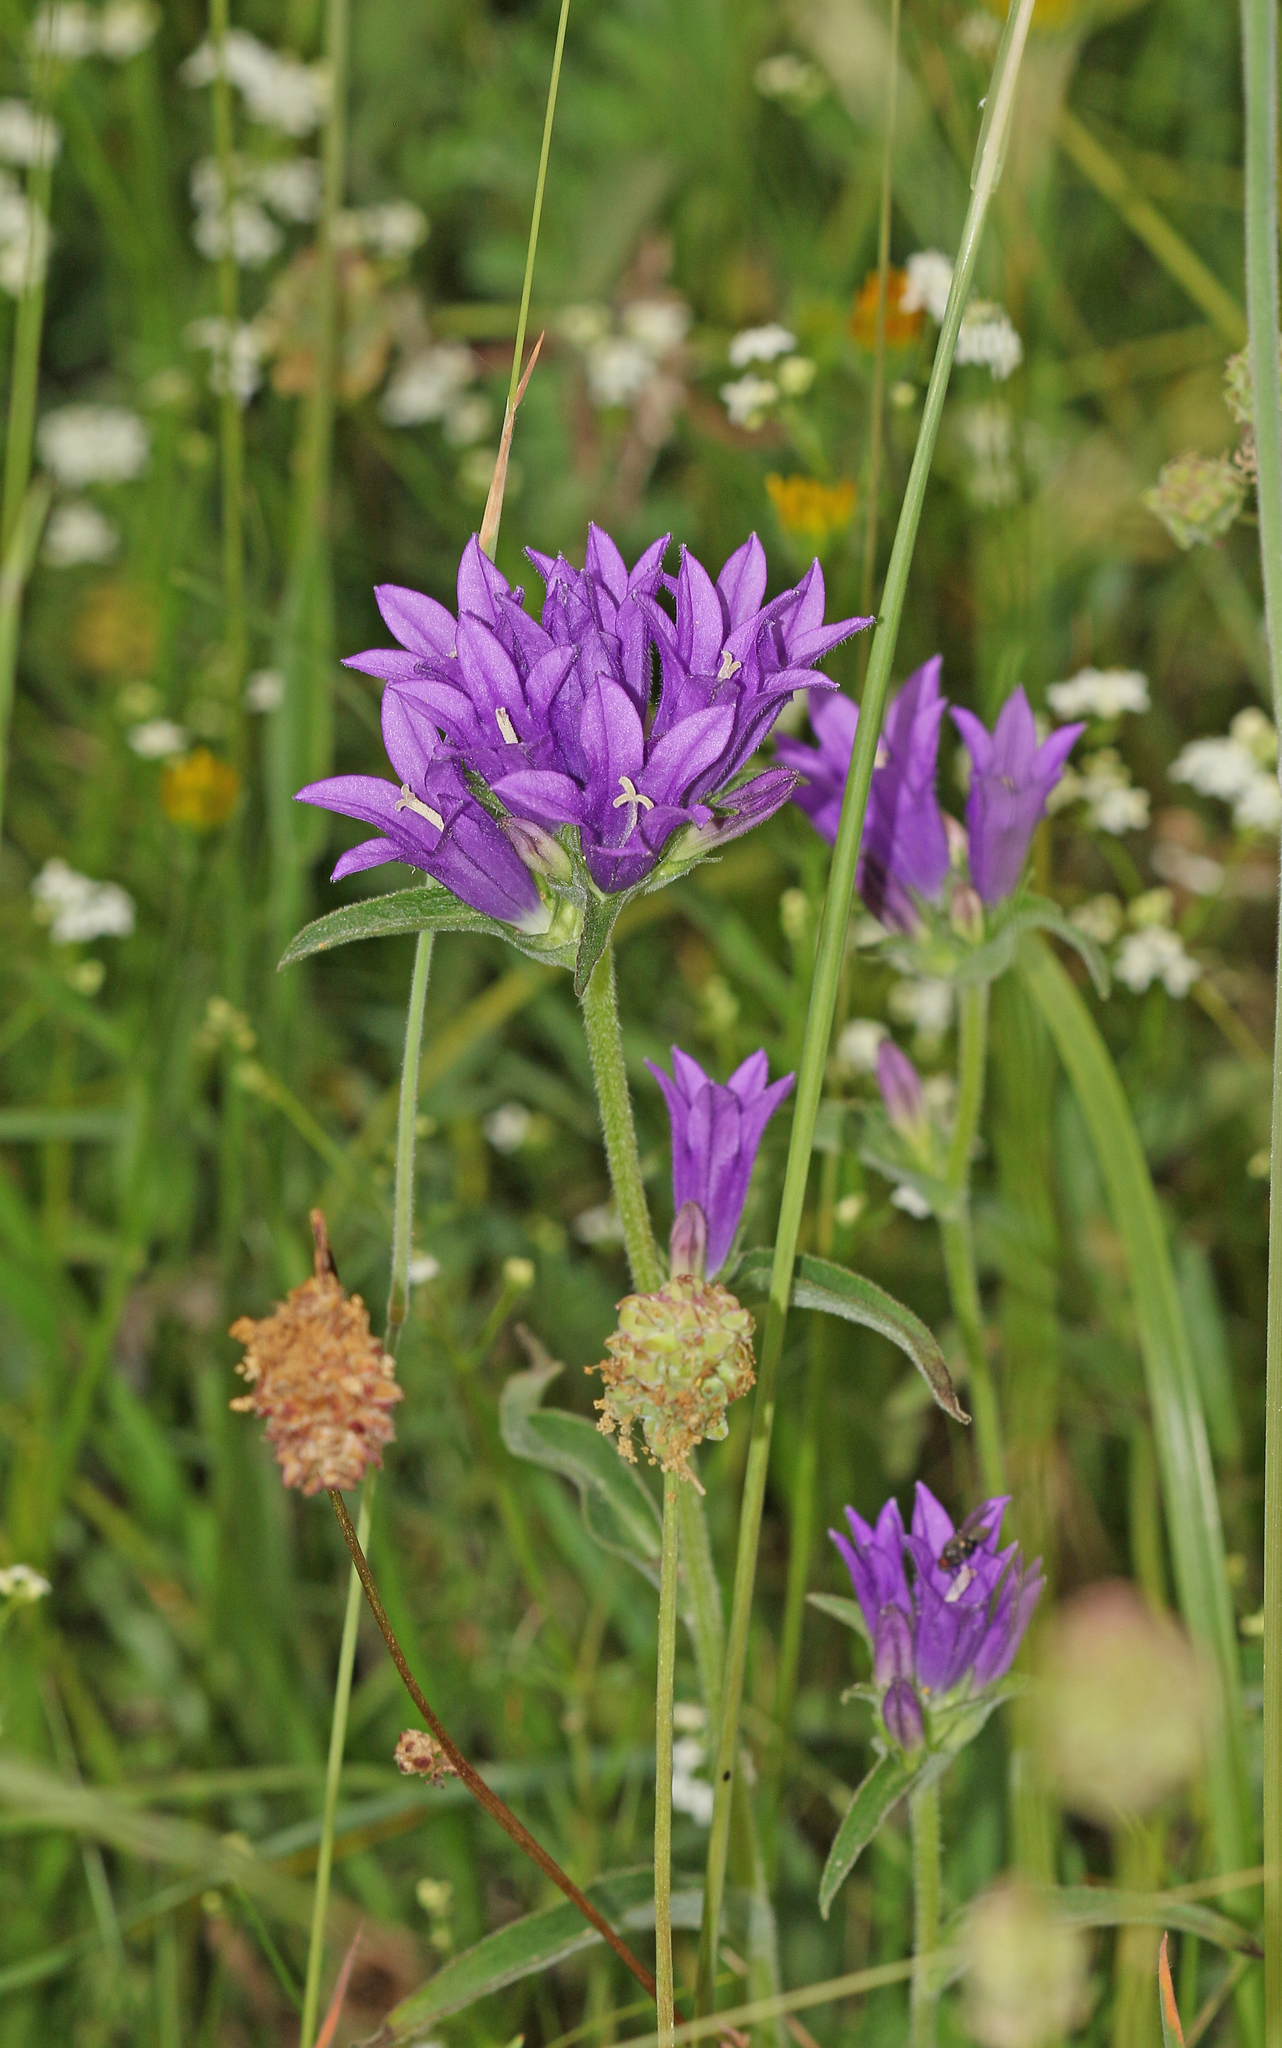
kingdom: Plantae
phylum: Tracheophyta
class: Magnoliopsida
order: Asterales
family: Campanulaceae
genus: Campanula
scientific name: Campanula glomerata
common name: Clustered bellflower
